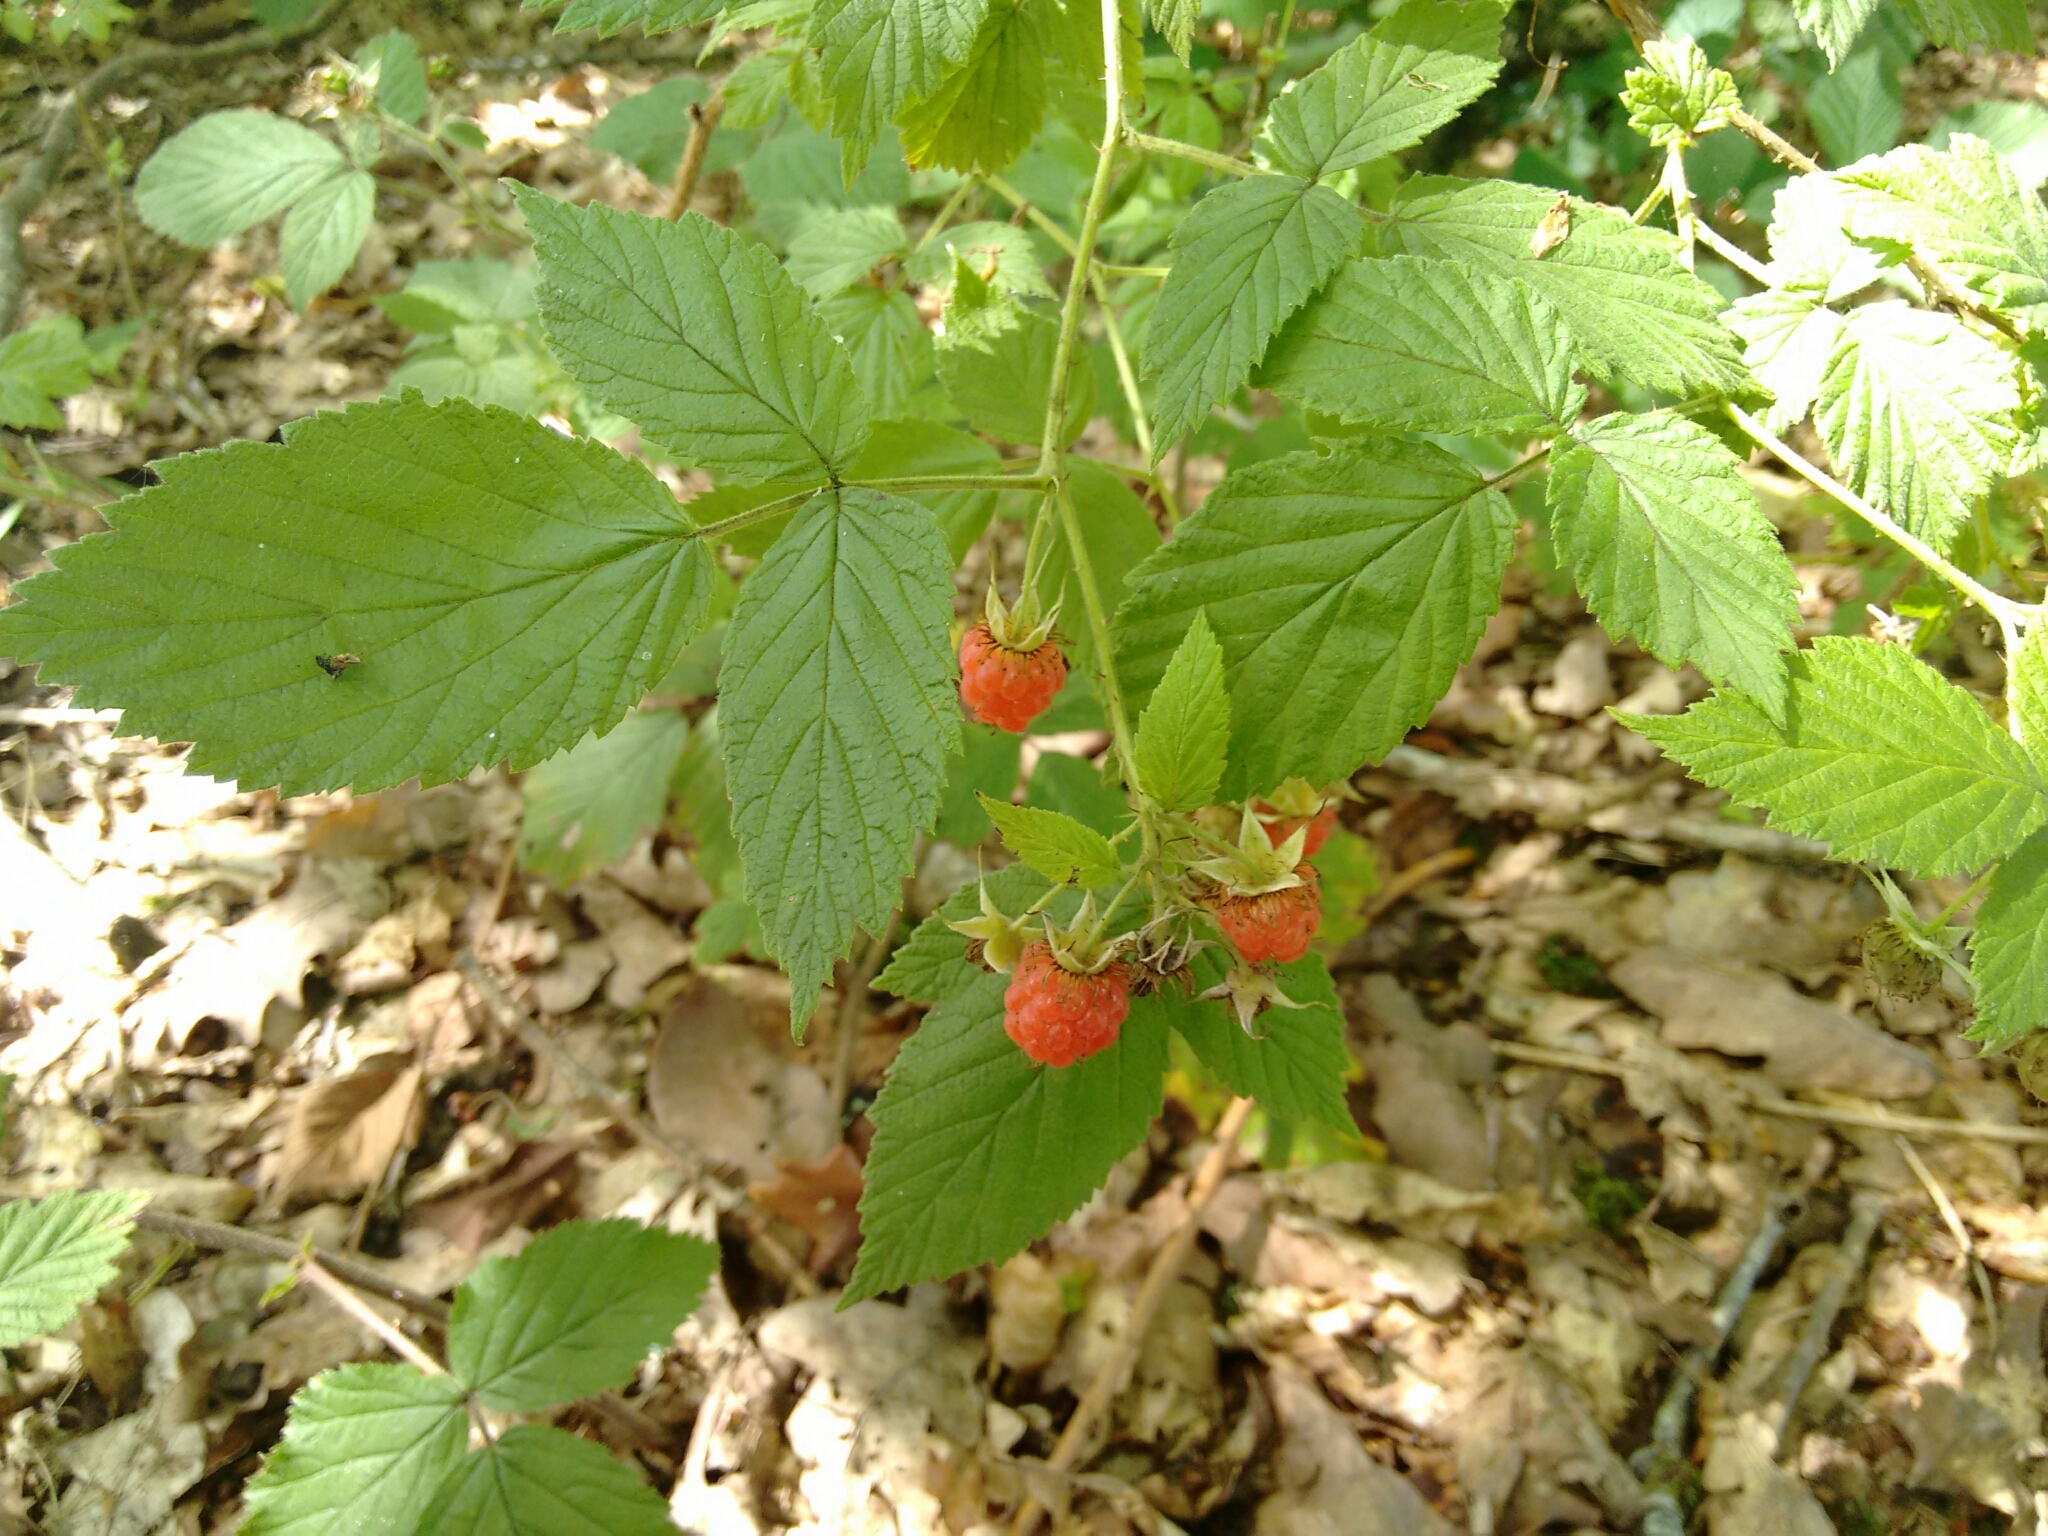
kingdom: Plantae
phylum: Tracheophyta
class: Magnoliopsida
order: Rosales
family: Rosaceae
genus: Rubus
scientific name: Rubus idaeus
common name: Raspberry
